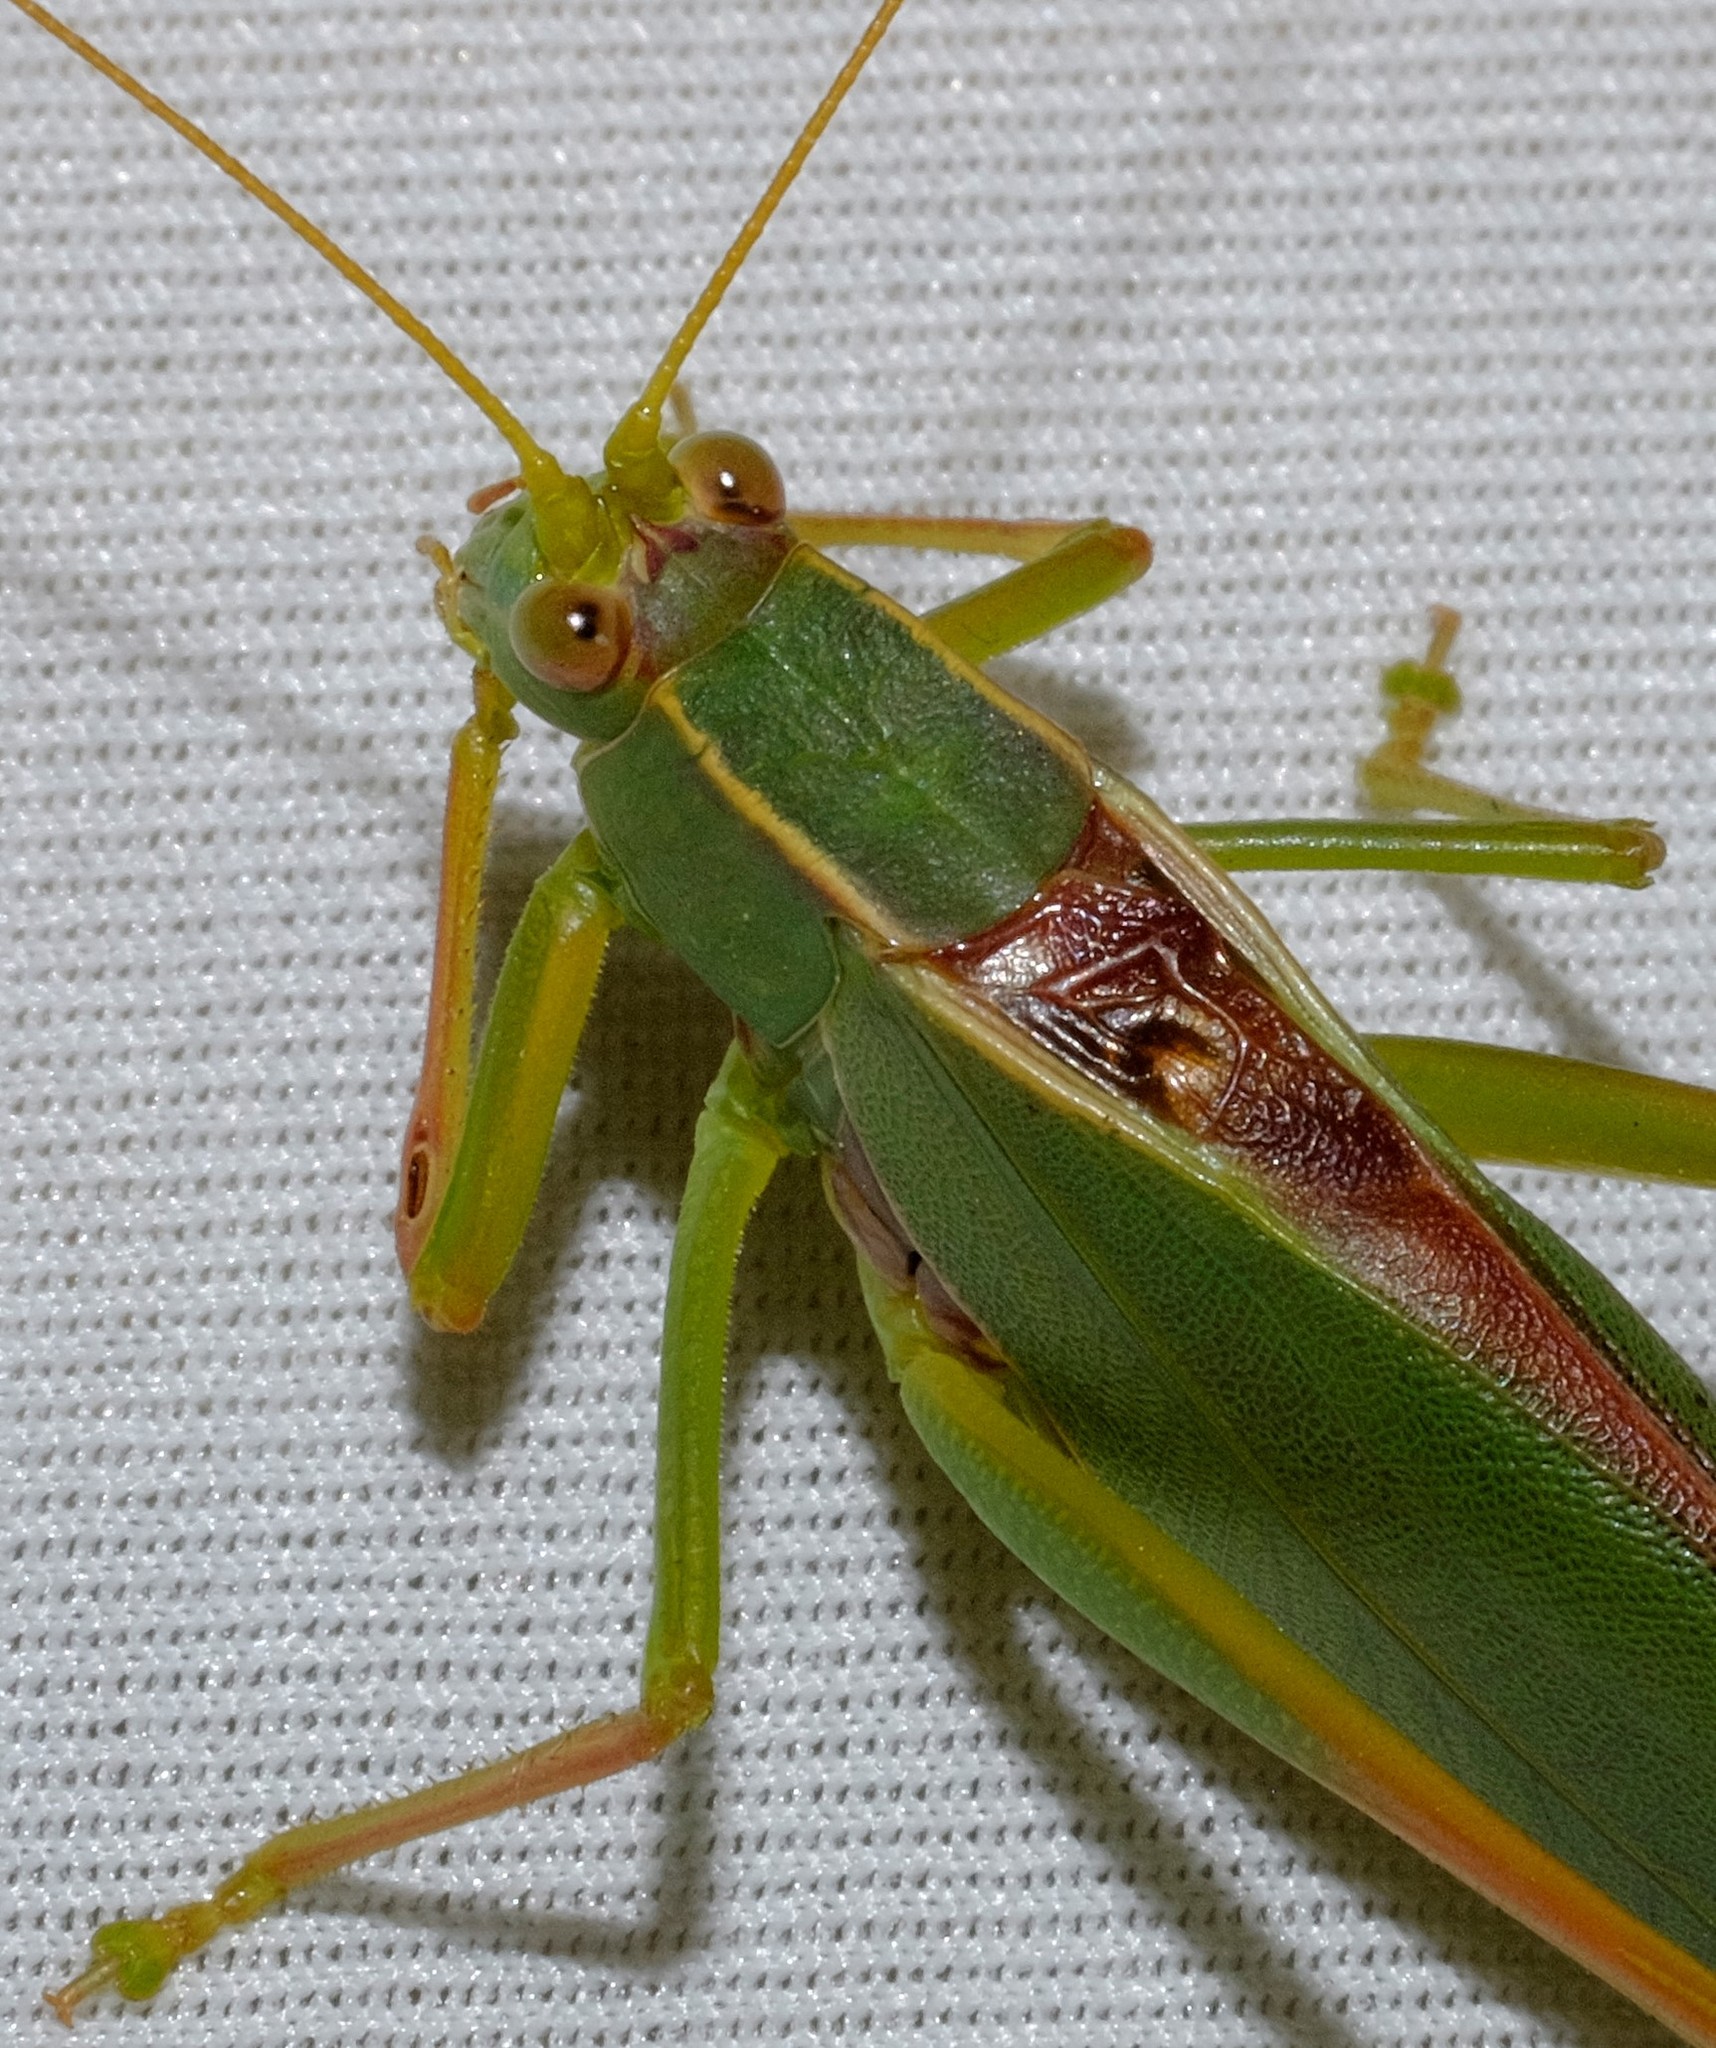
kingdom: Animalia
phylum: Arthropoda
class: Insecta
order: Orthoptera
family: Tettigoniidae
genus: Torbia
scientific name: Torbia viridissima
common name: Non-predaceous gum leaf katydid
